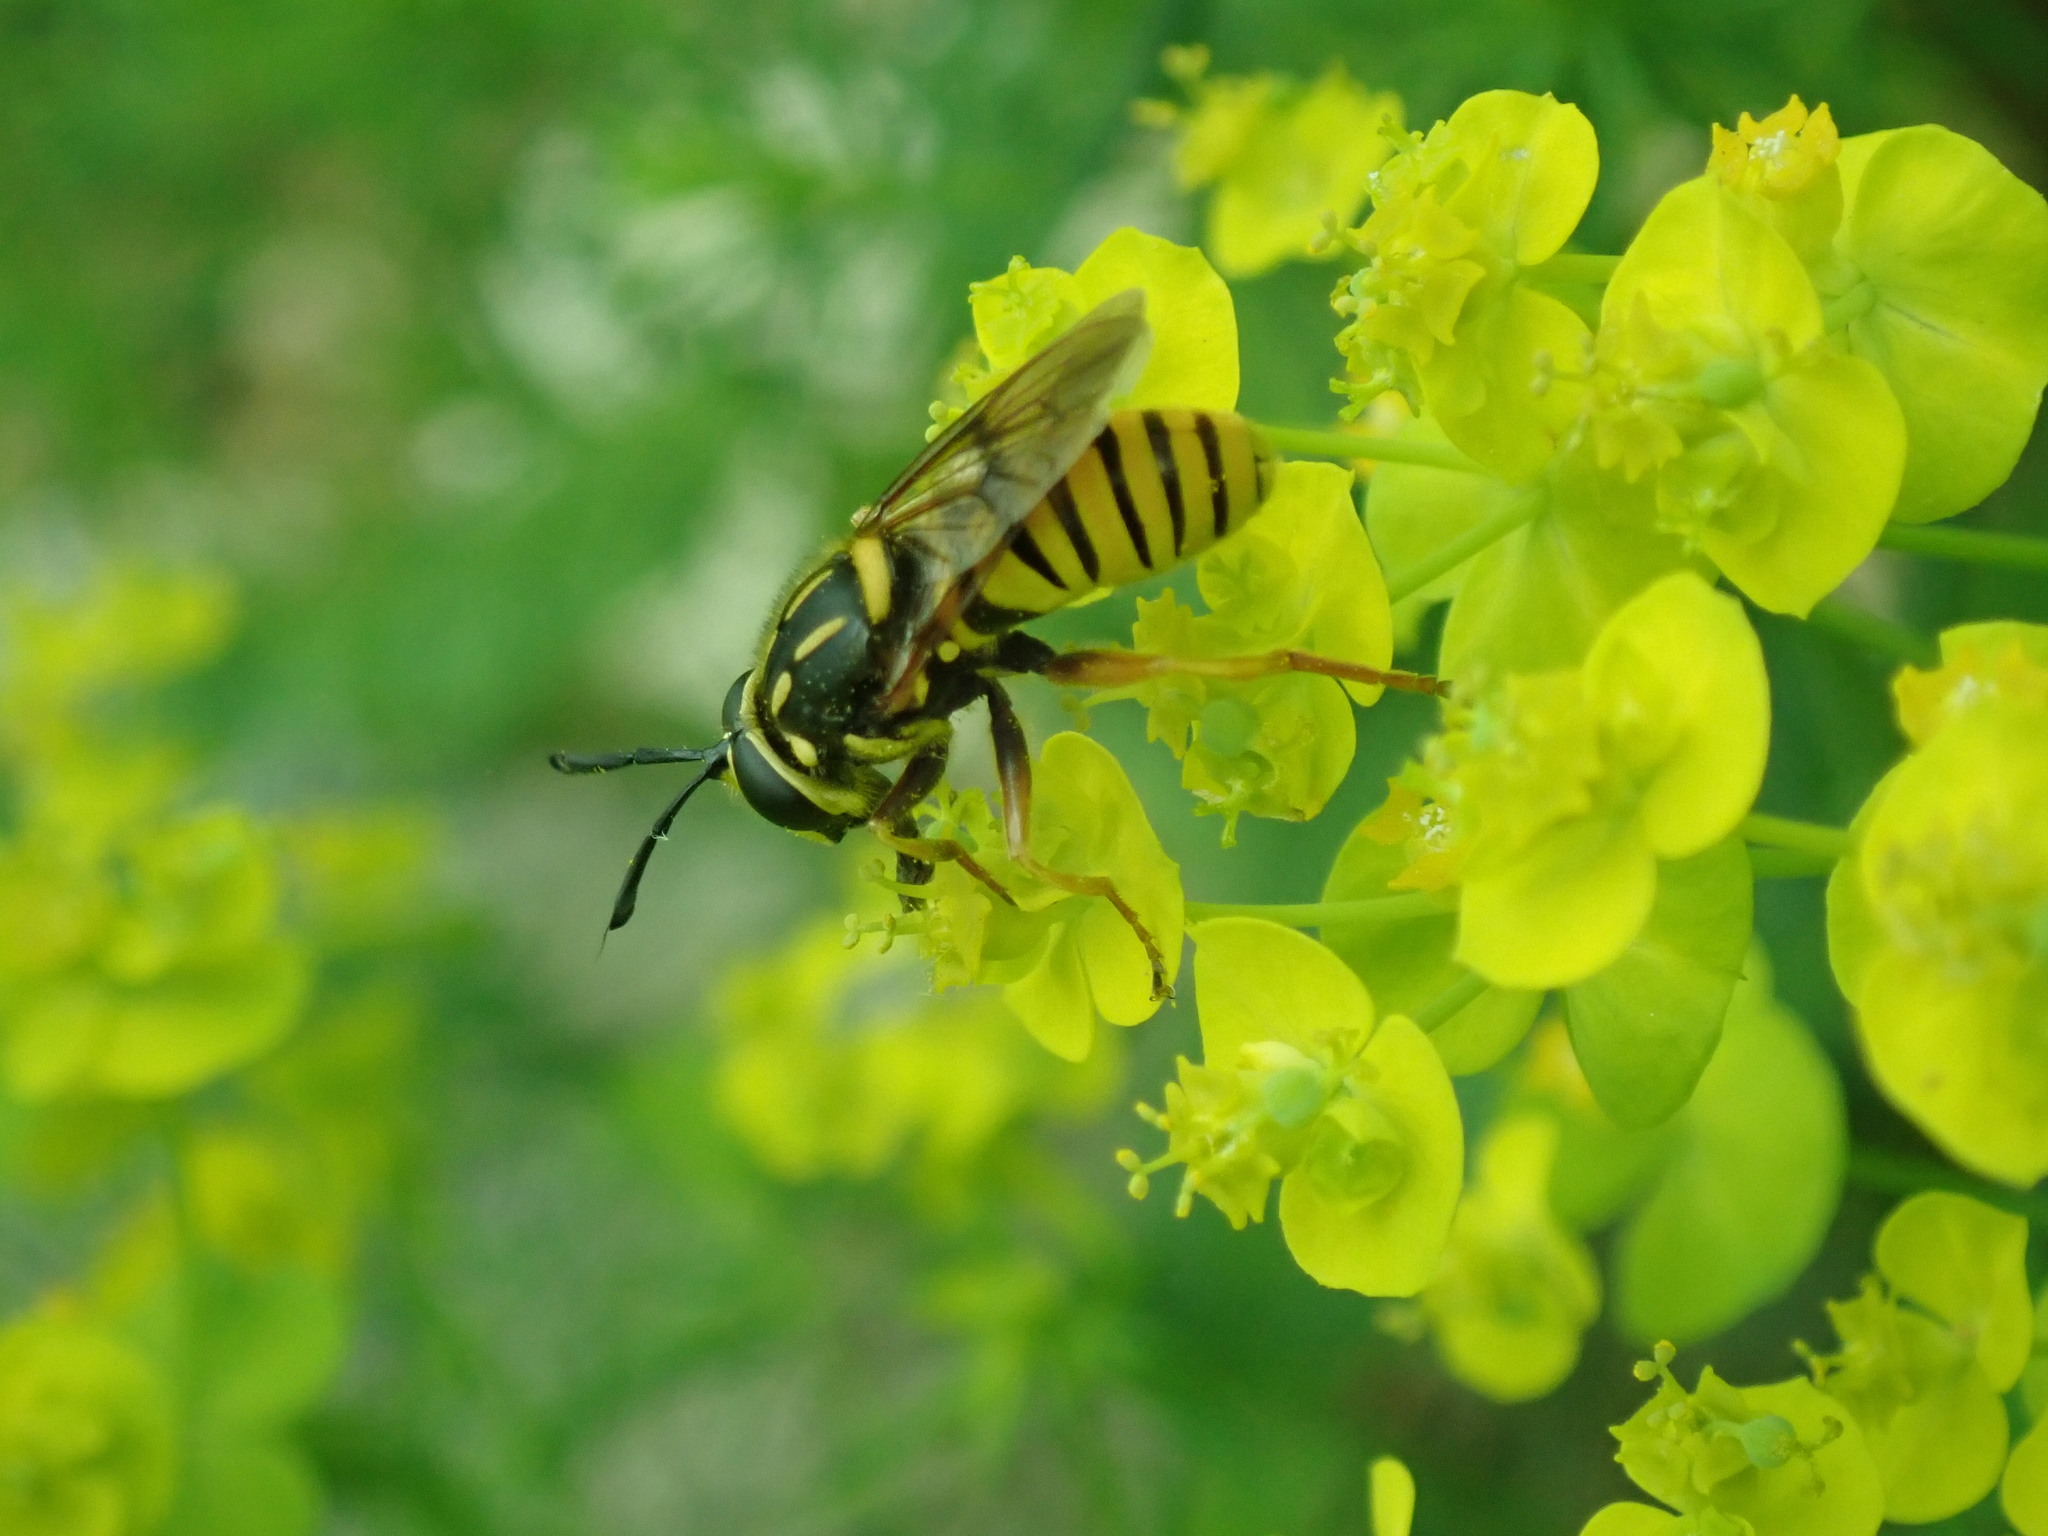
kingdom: Animalia
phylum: Arthropoda
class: Insecta
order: Diptera
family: Syrphidae
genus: Sphecomyia
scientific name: Sphecomyia vittata
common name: Long-horned yellowjacket fly
